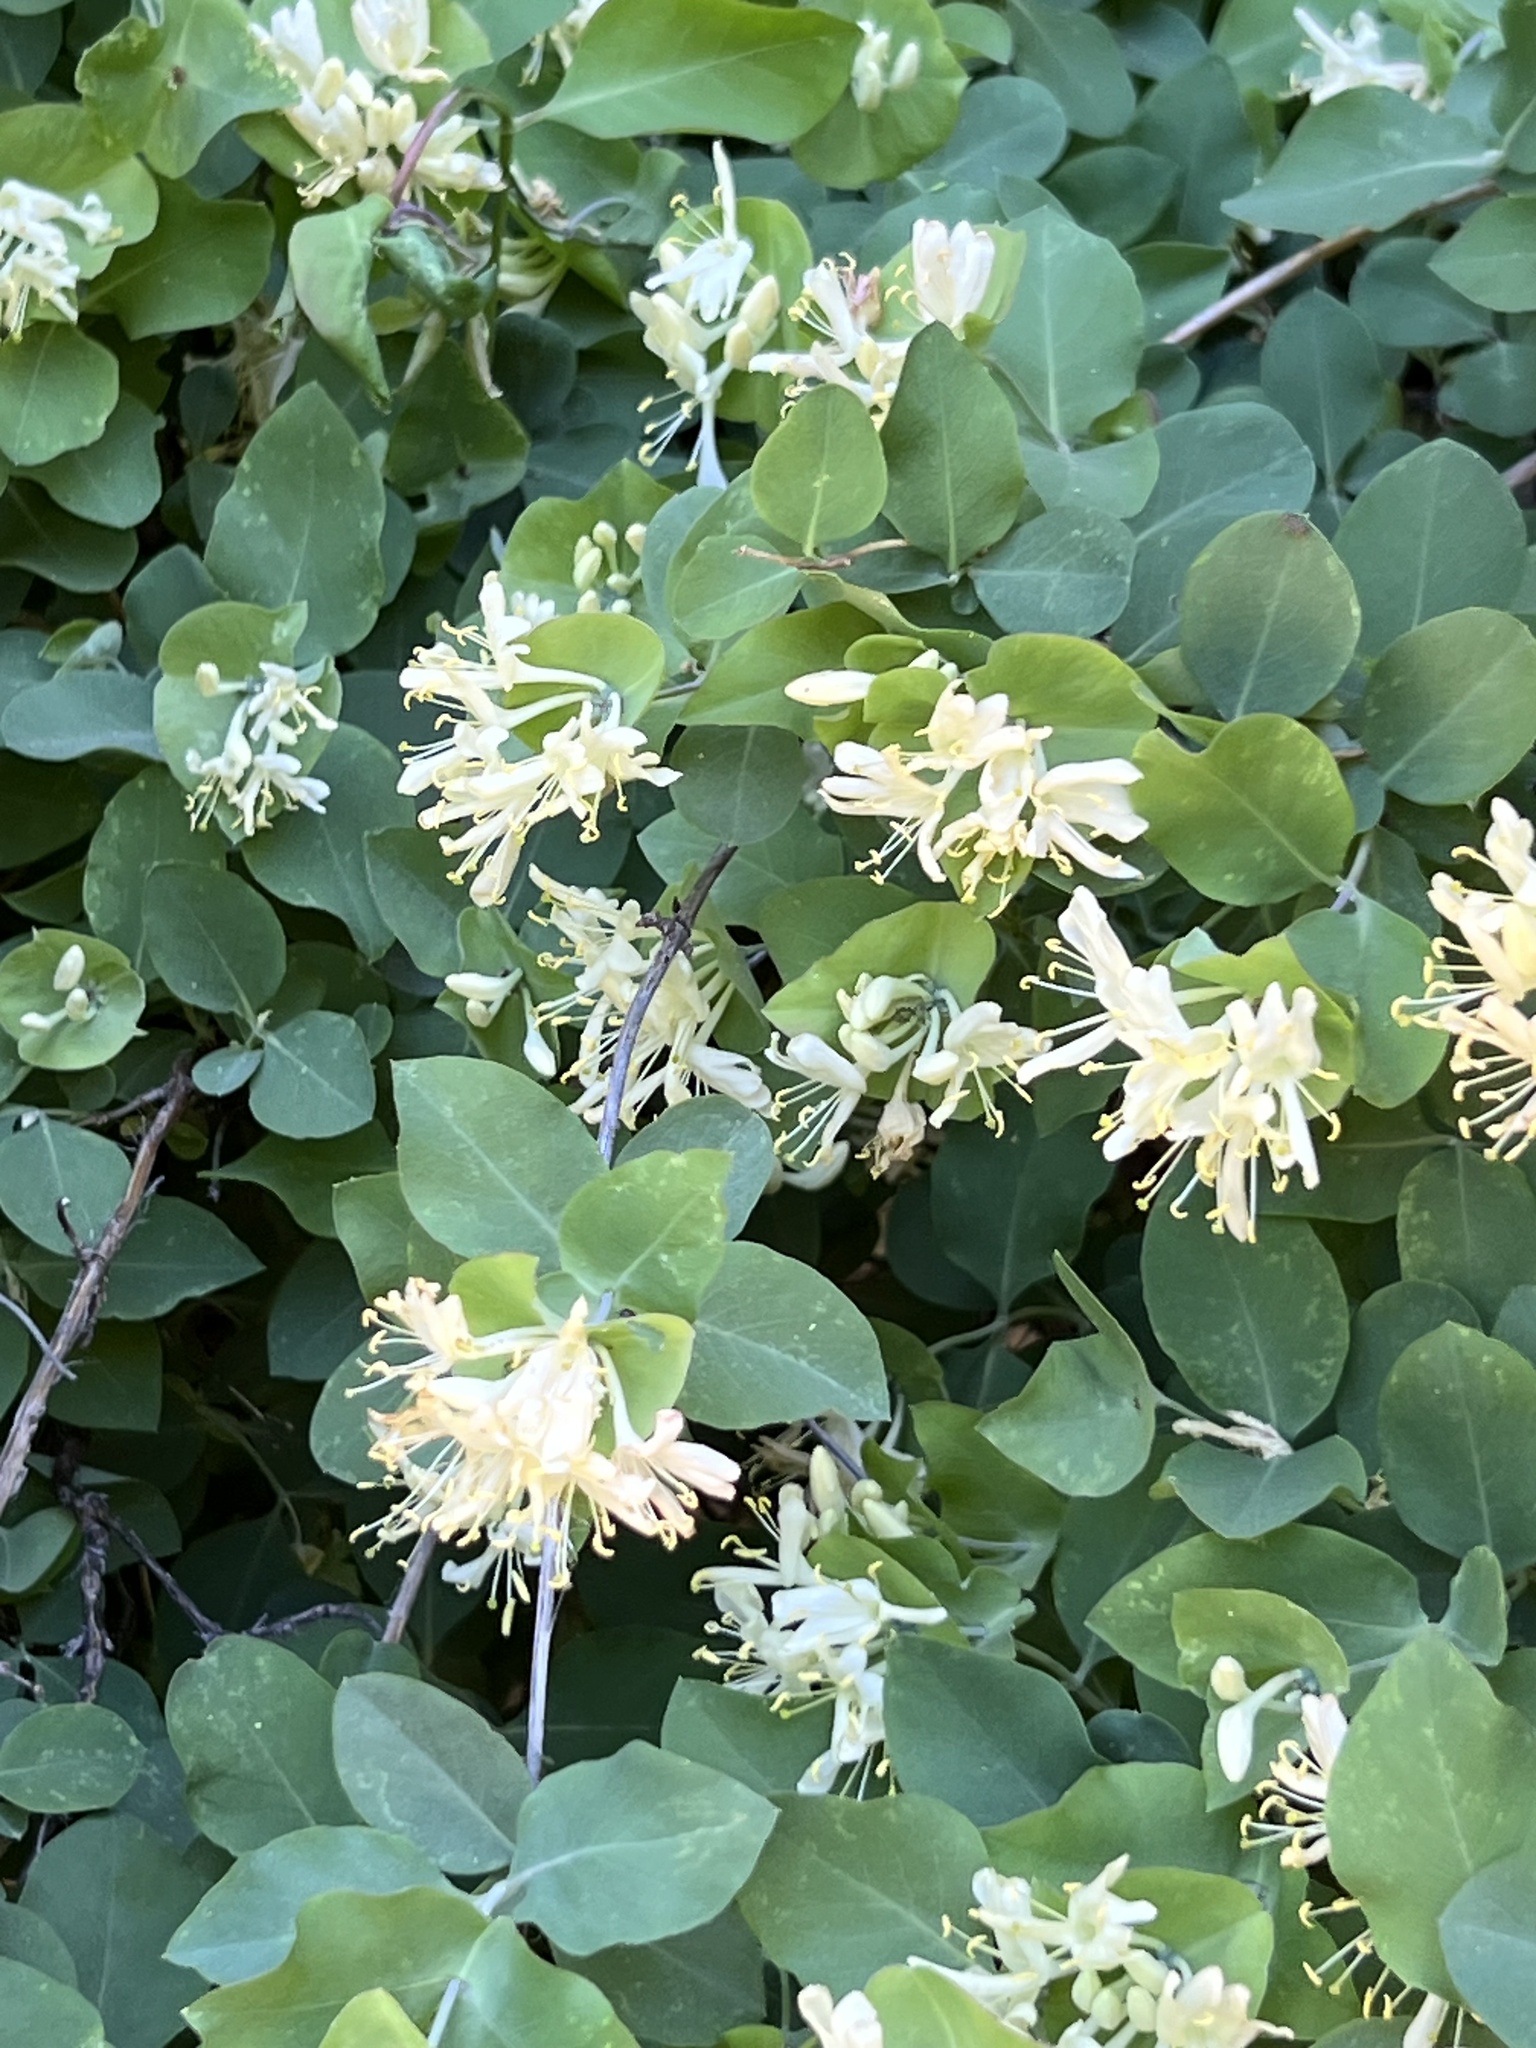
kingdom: Plantae
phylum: Tracheophyta
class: Magnoliopsida
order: Dipsacales
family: Caprifoliaceae
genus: Lonicera
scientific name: Lonicera albiflora
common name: White honeysuckle
